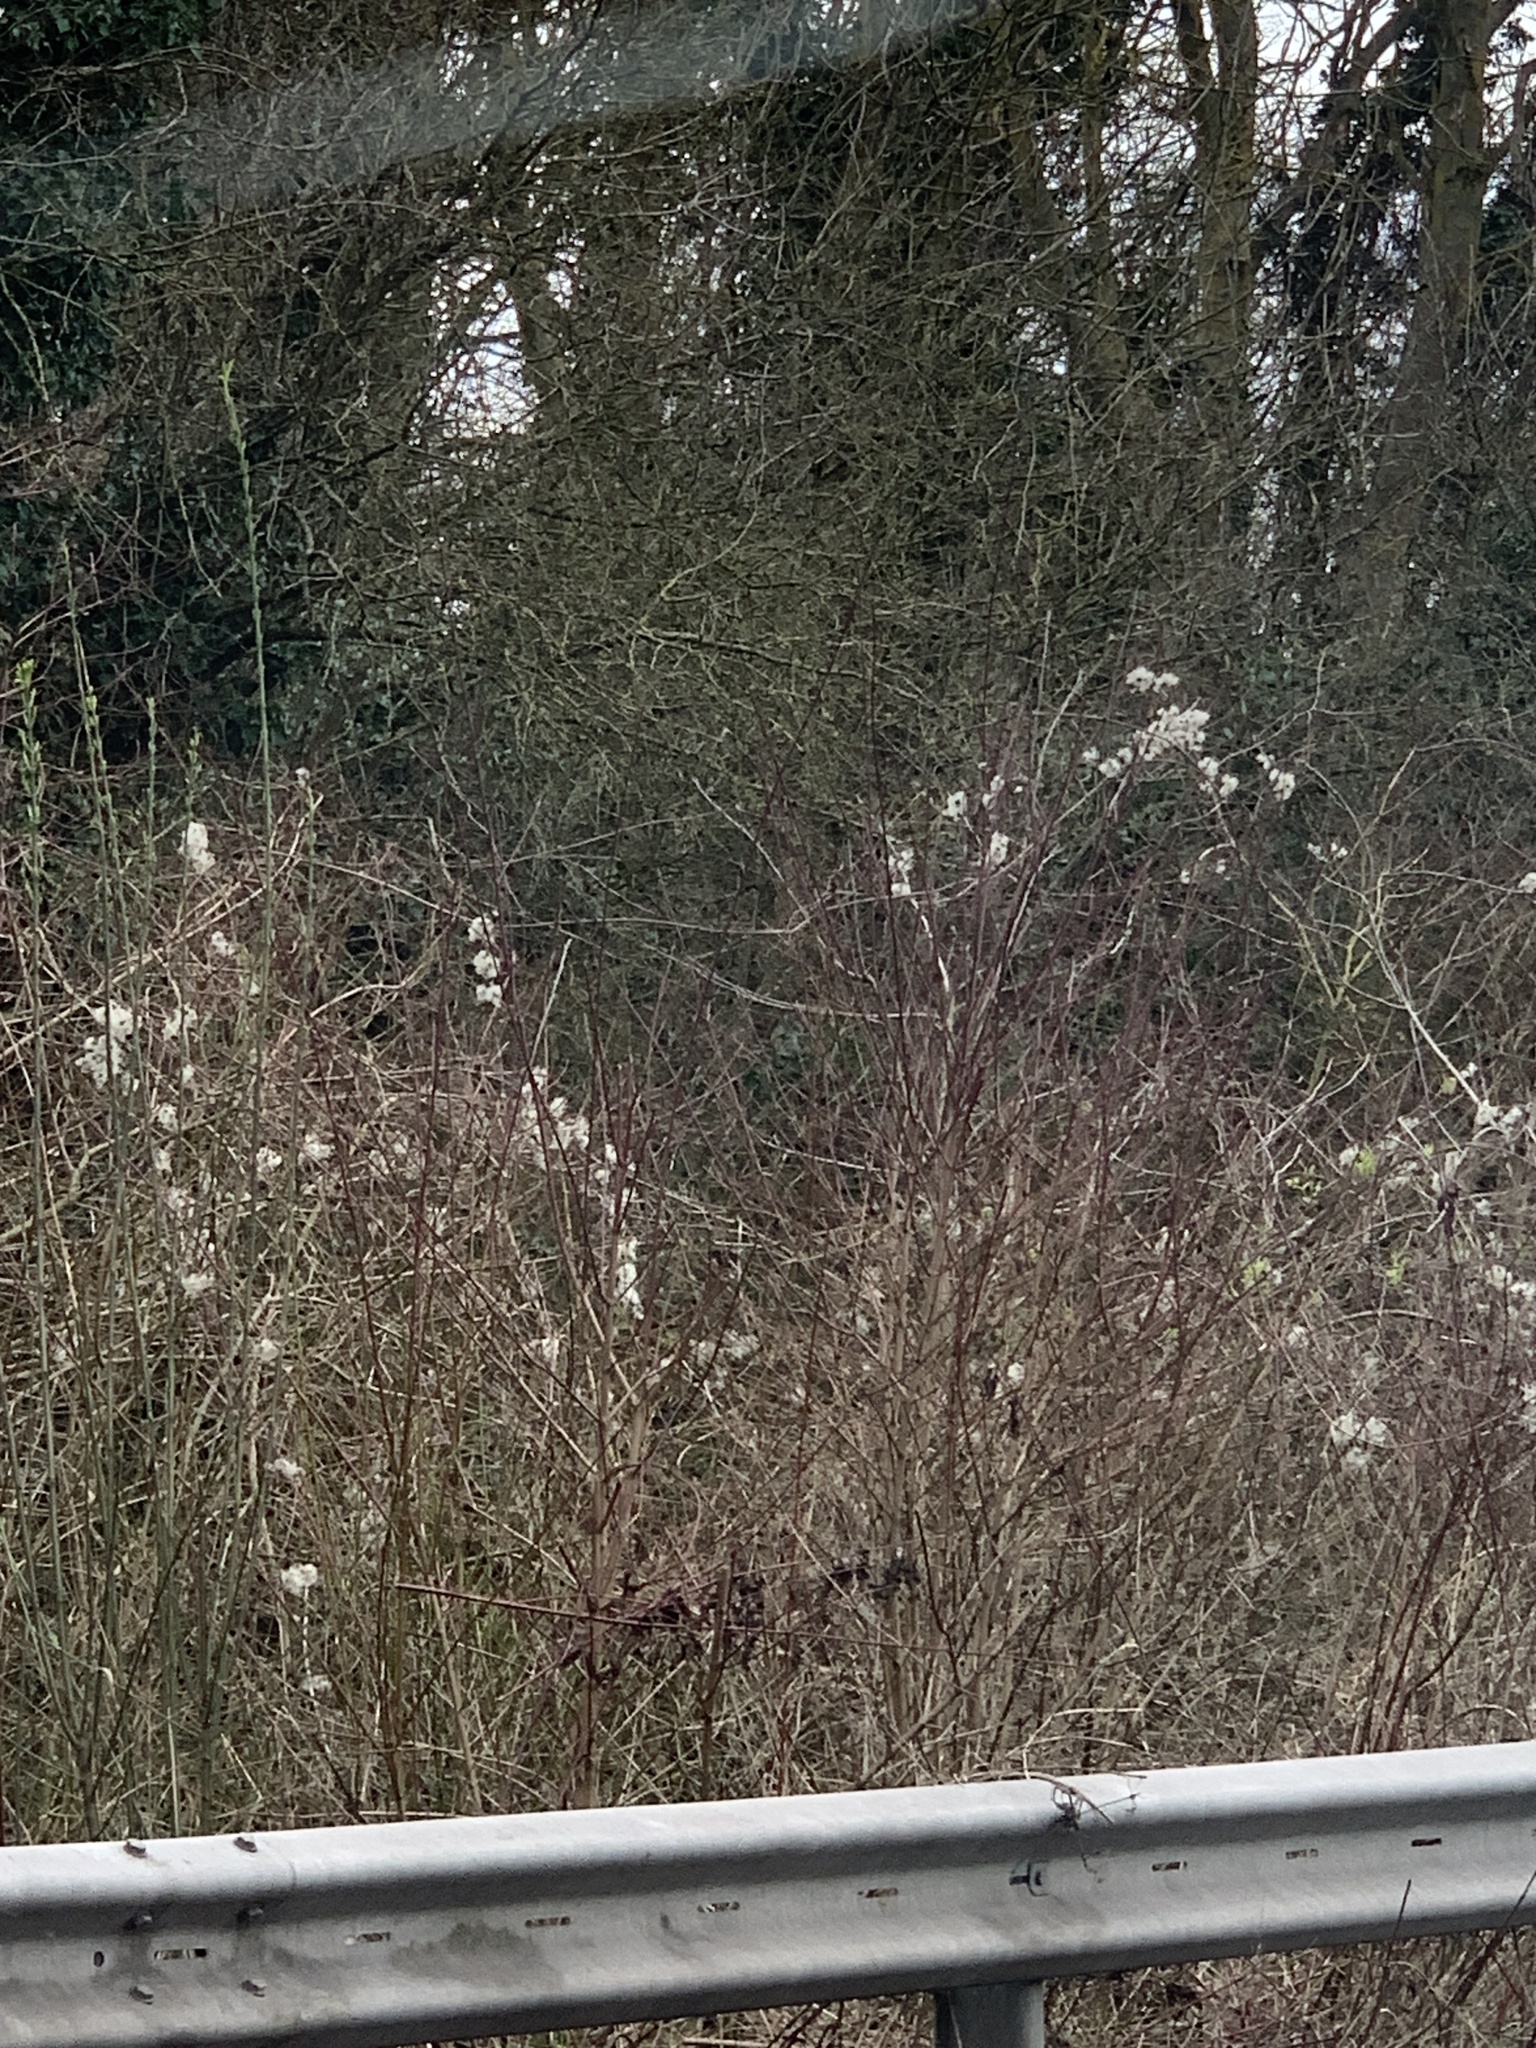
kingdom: Plantae
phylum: Tracheophyta
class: Magnoliopsida
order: Ranunculales
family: Ranunculaceae
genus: Clematis
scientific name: Clematis vitalba
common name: Evergreen clematis
